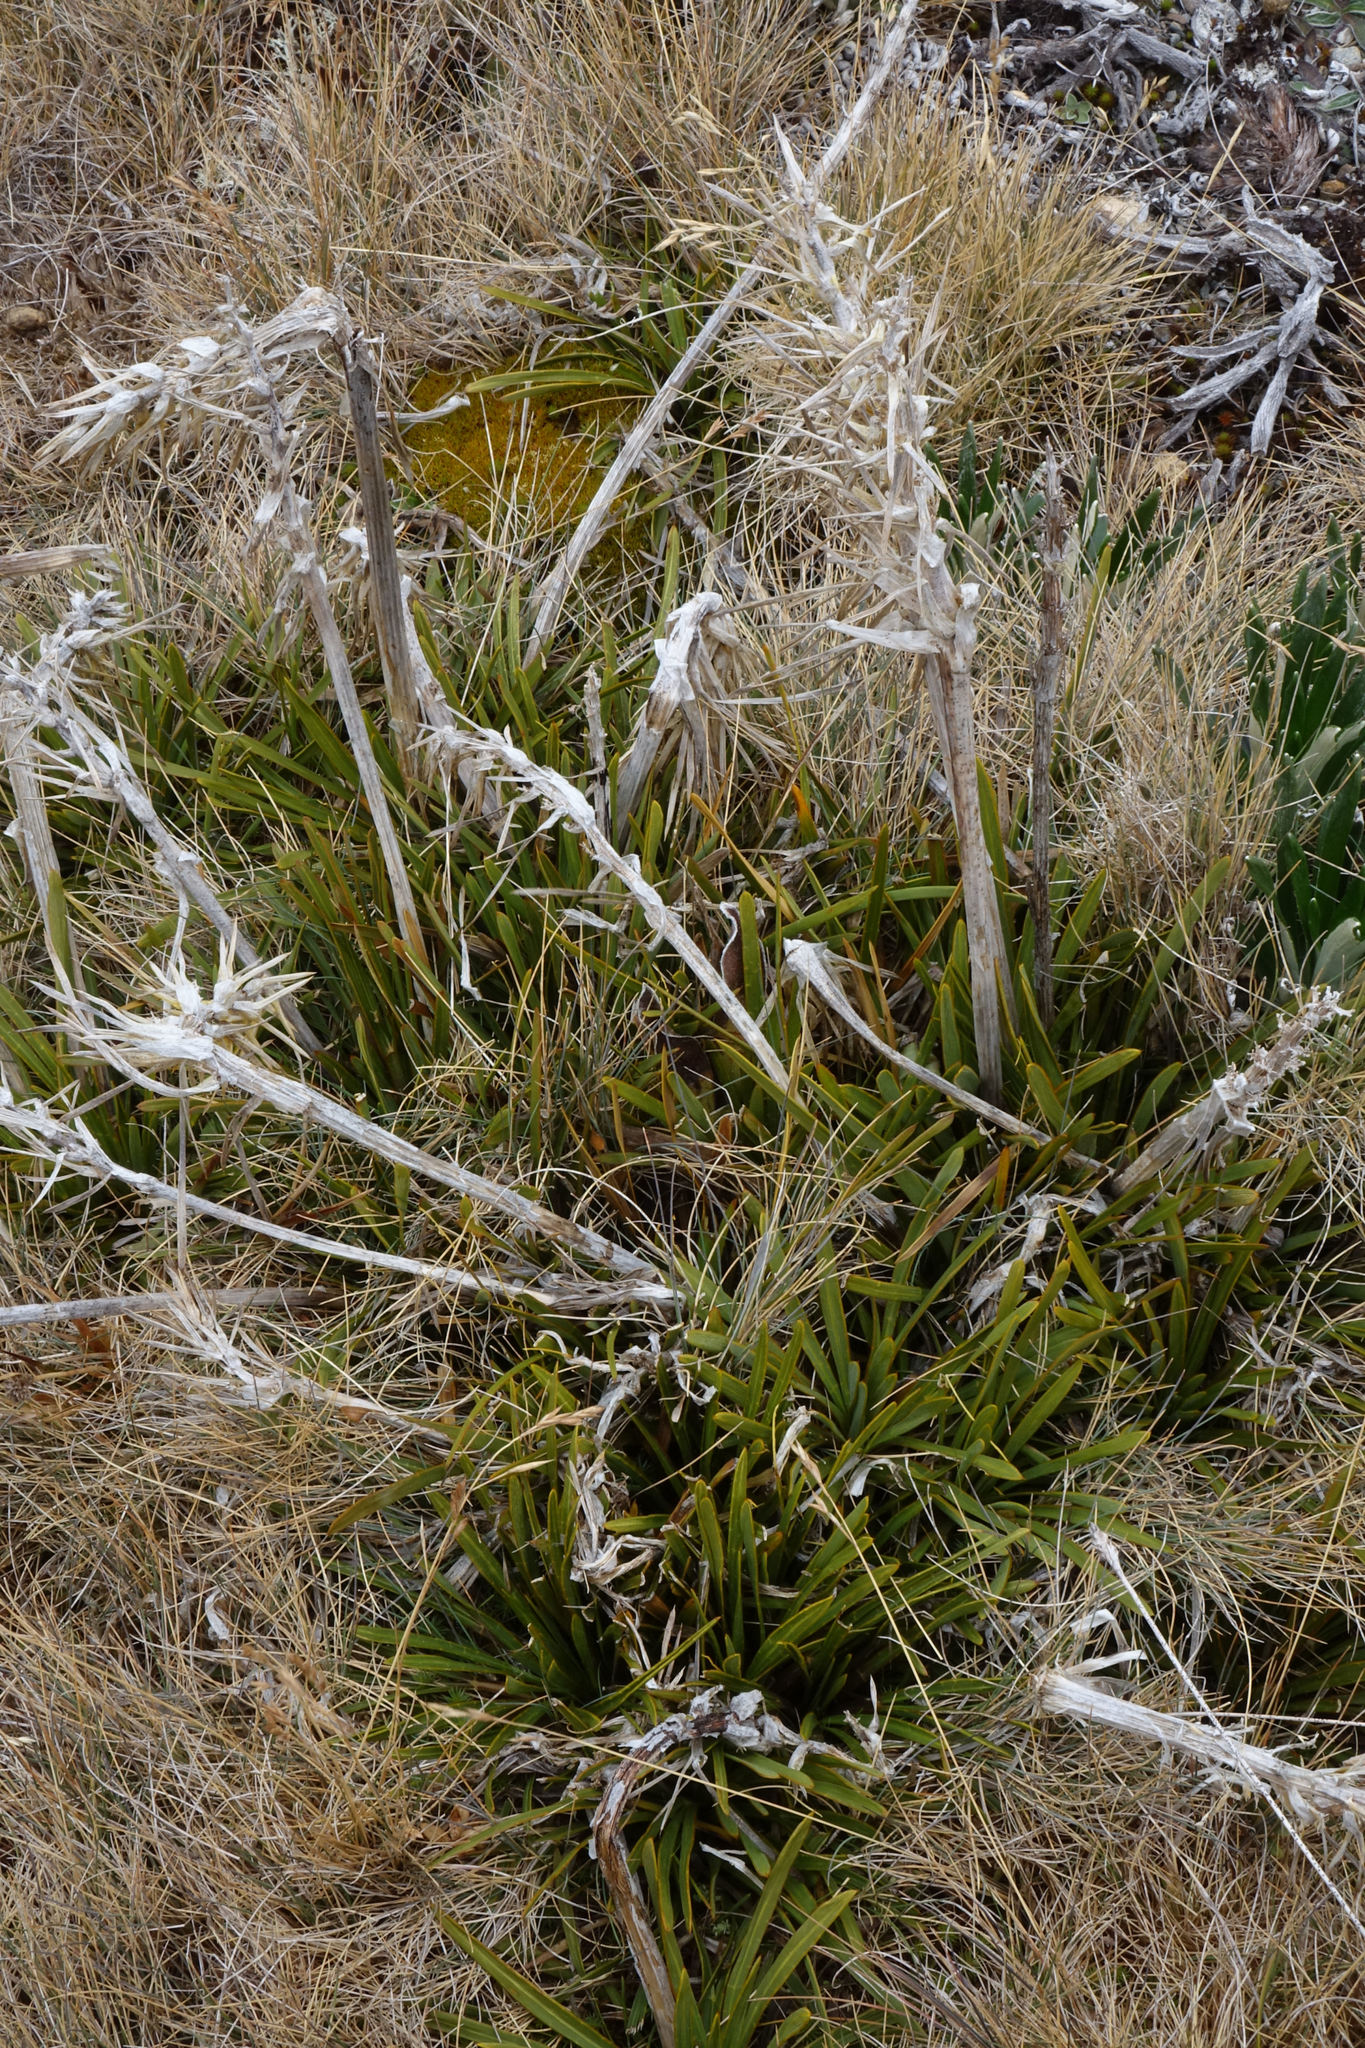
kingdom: Plantae
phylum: Tracheophyta
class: Magnoliopsida
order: Apiales
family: Apiaceae
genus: Aciphylla
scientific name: Aciphylla verticillata
